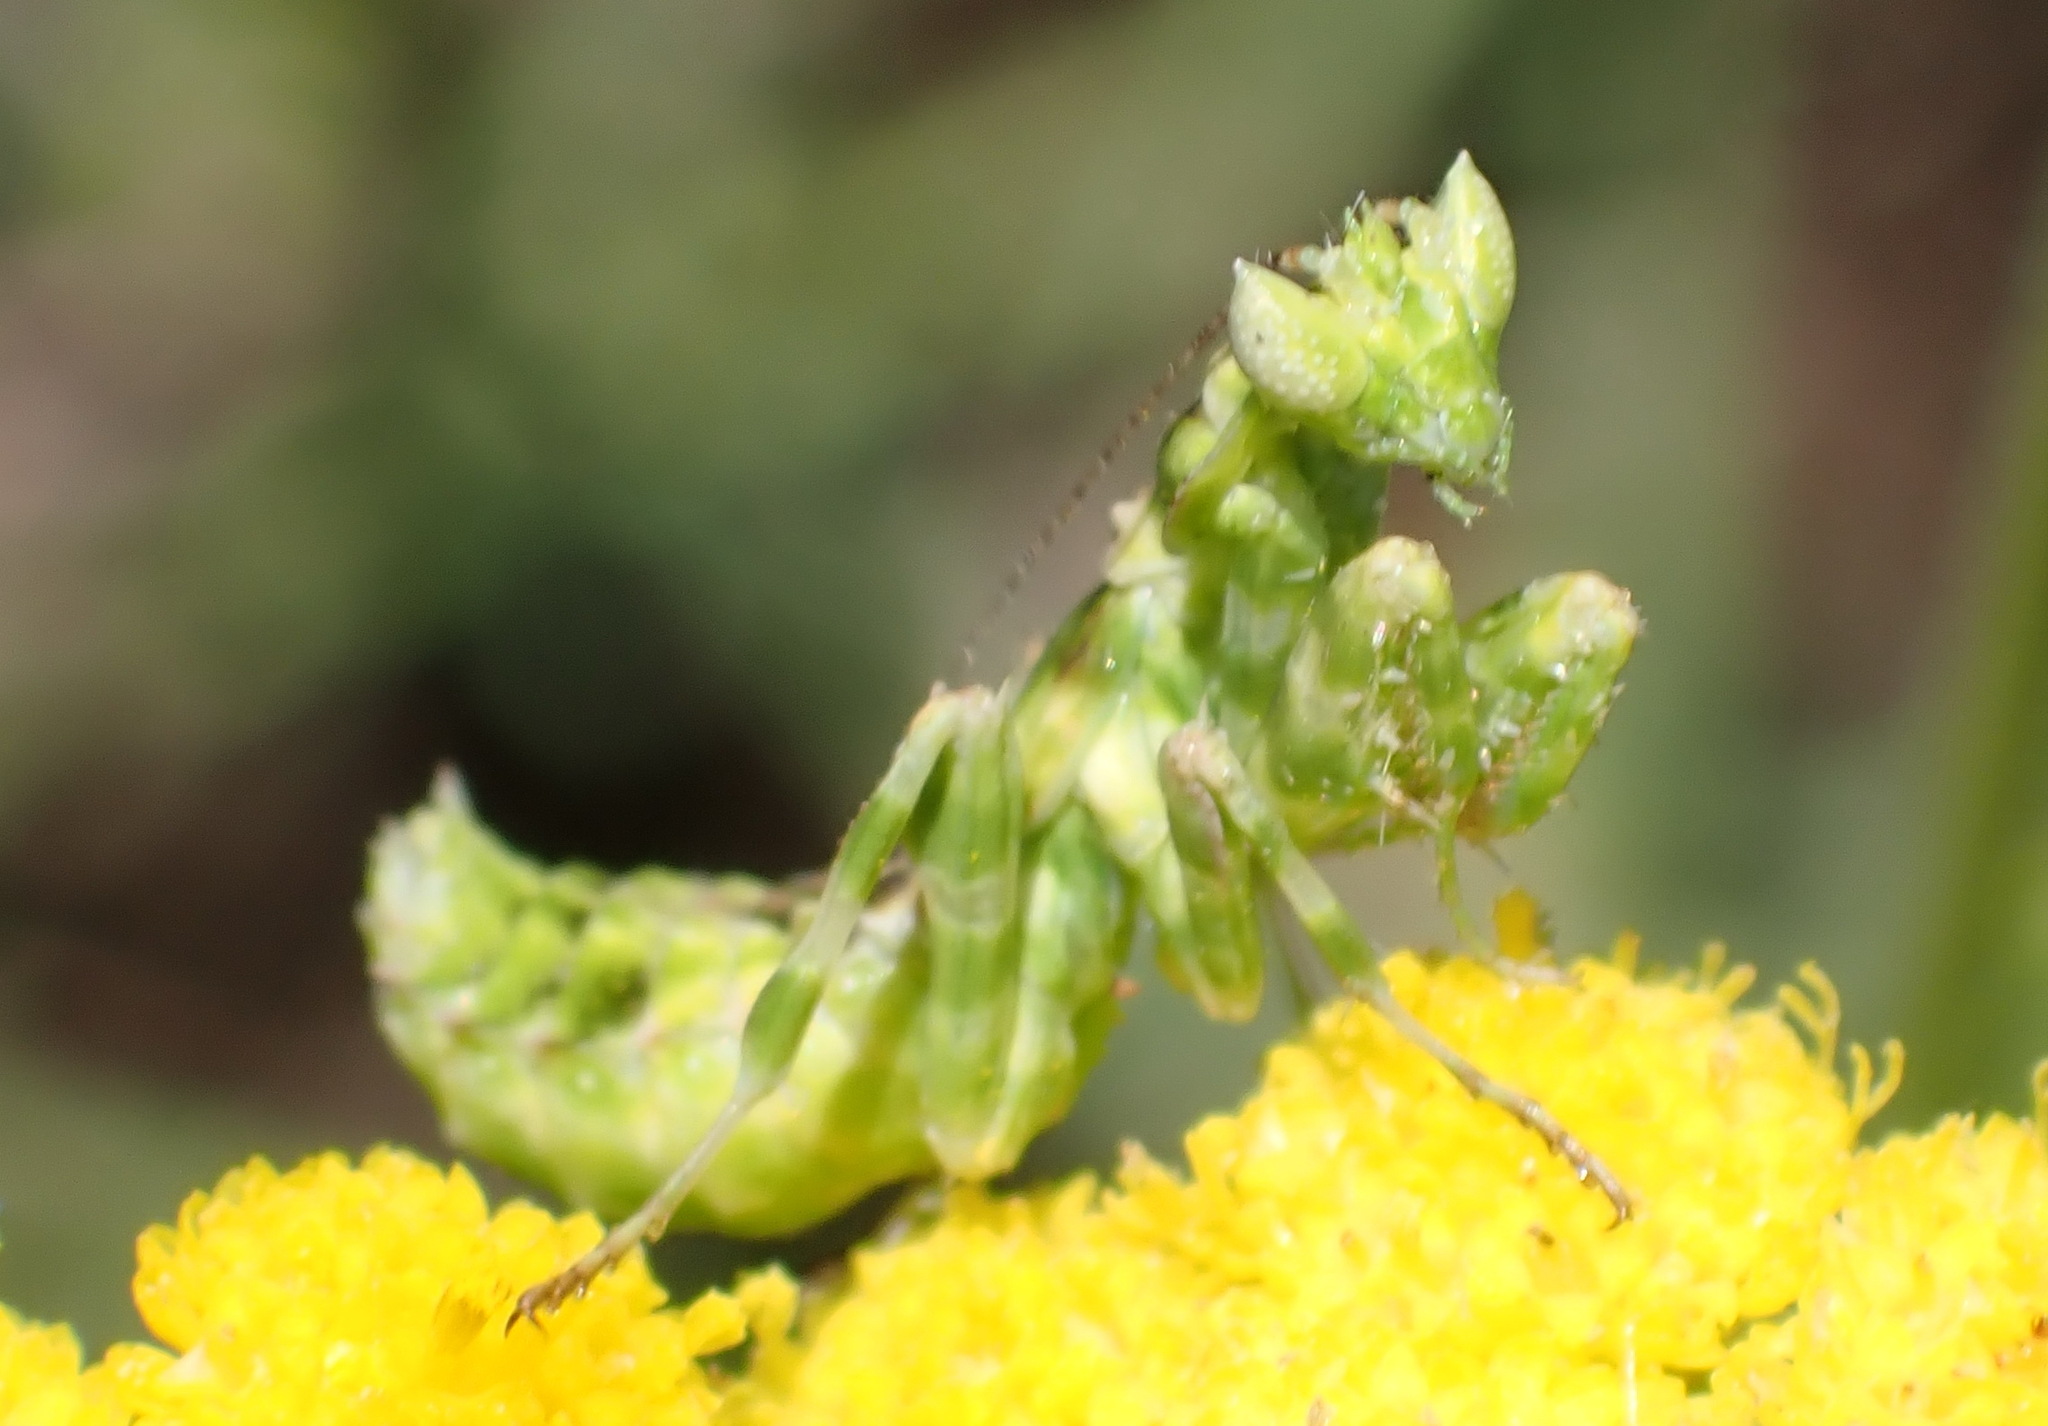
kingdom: Animalia
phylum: Arthropoda
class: Insecta
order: Mantodea
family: Galinthiadidae
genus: Harpagomantis
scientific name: Harpagomantis tricolor
